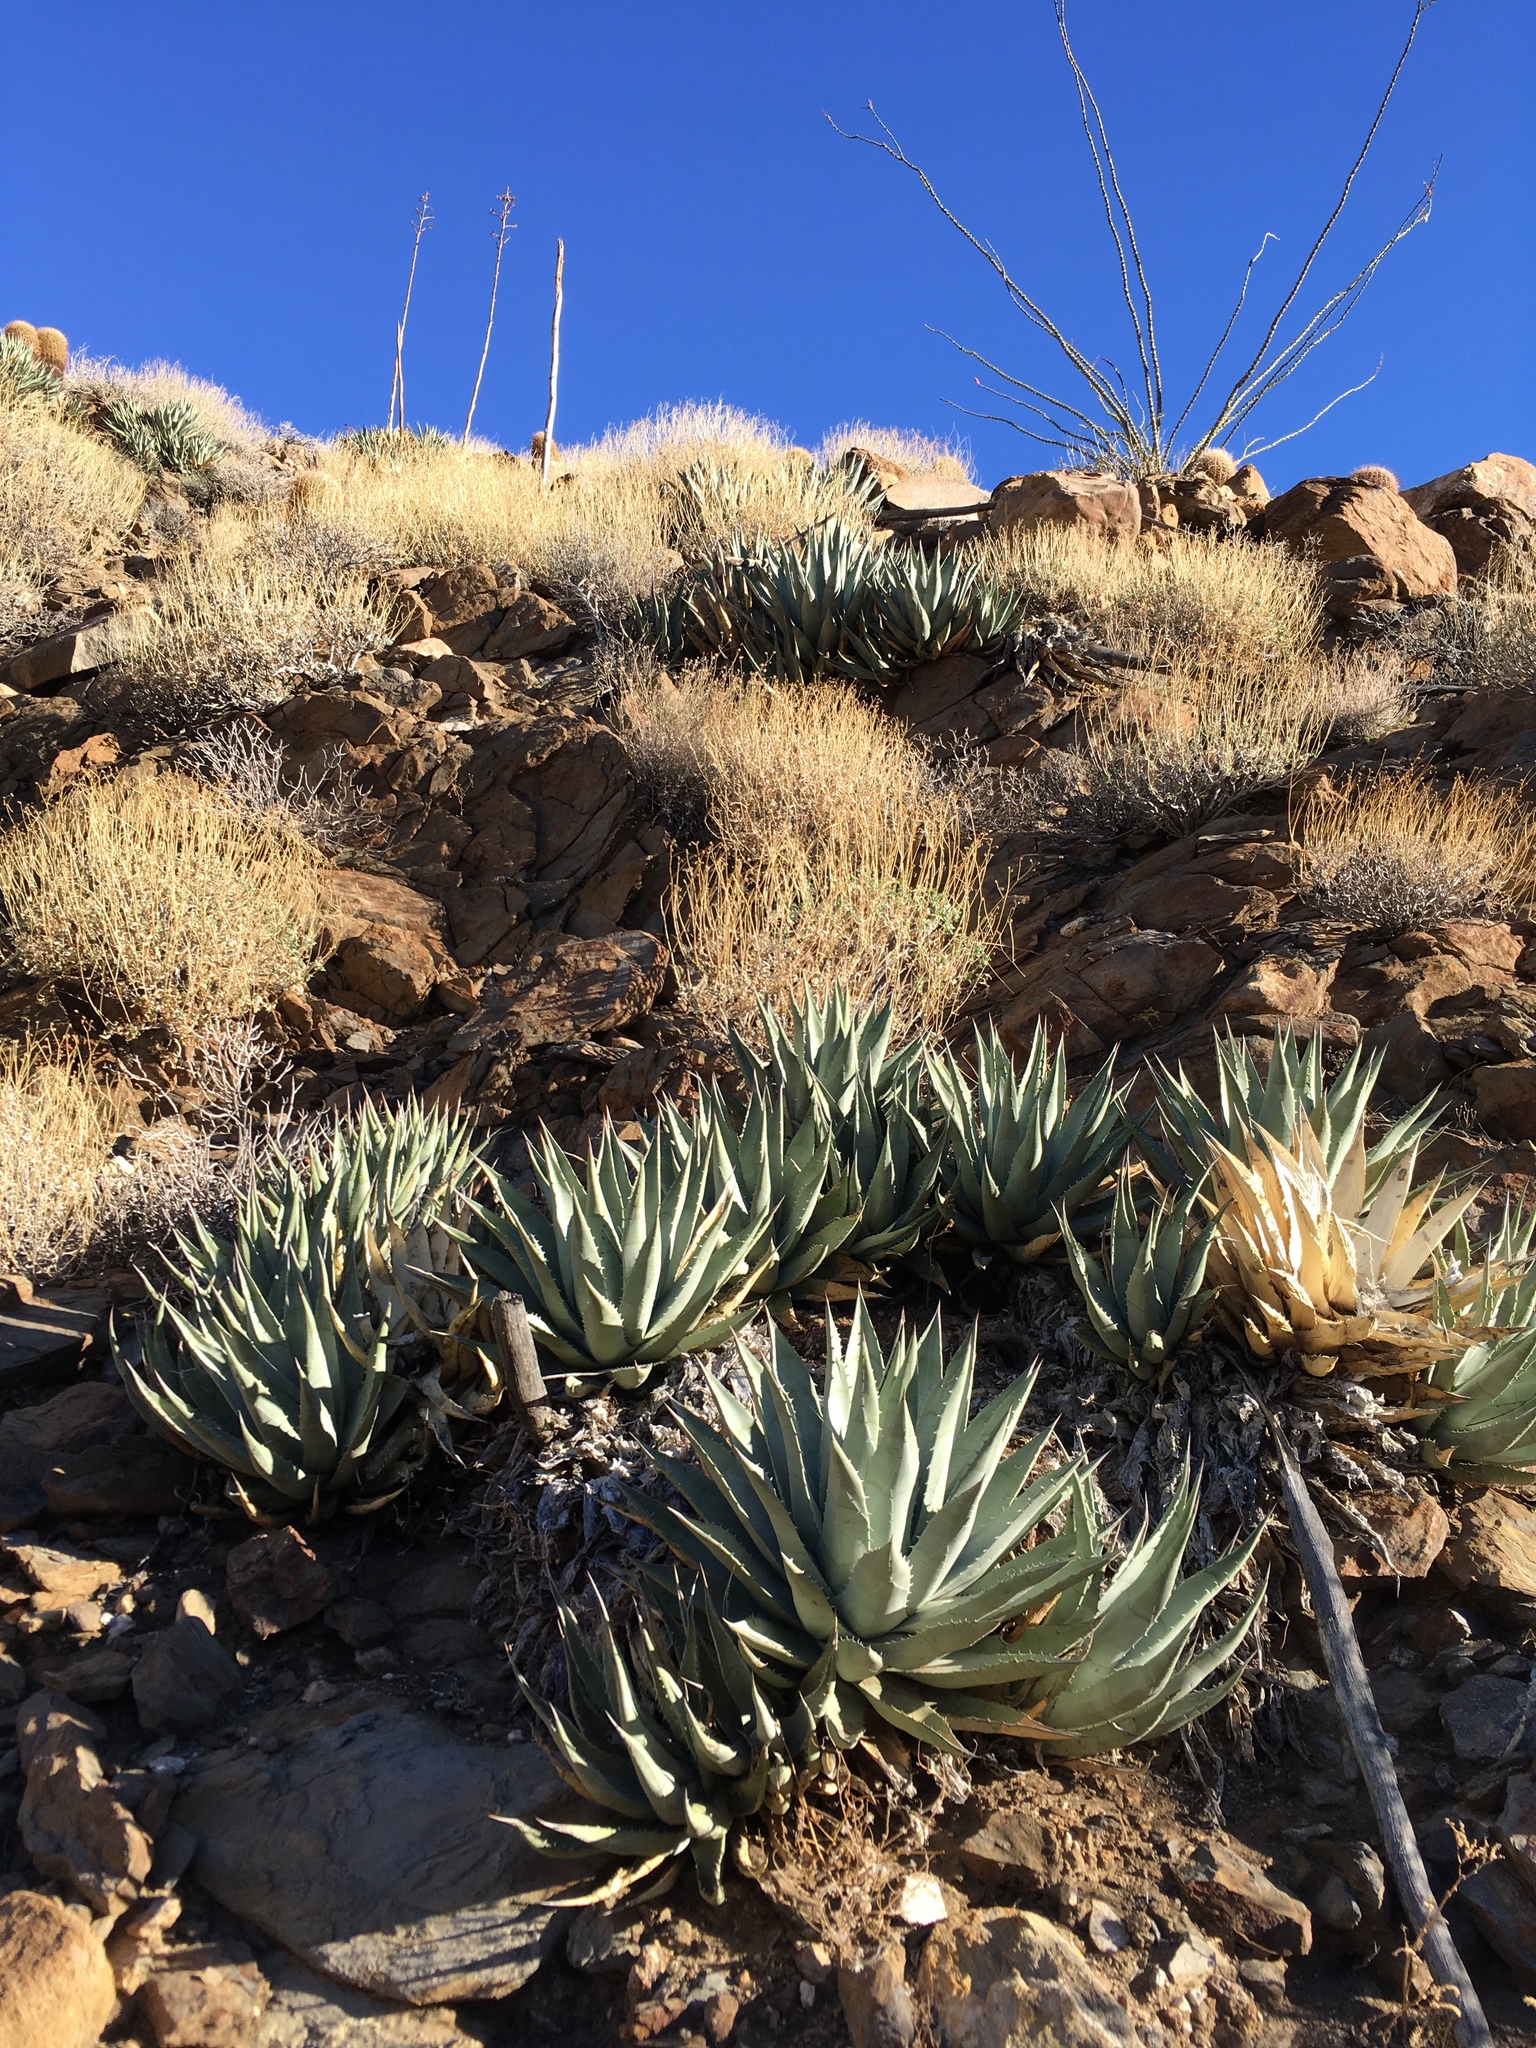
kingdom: Plantae
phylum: Tracheophyta
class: Liliopsida
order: Asparagales
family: Asparagaceae
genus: Agave
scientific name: Agave deserti
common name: Desert agave
